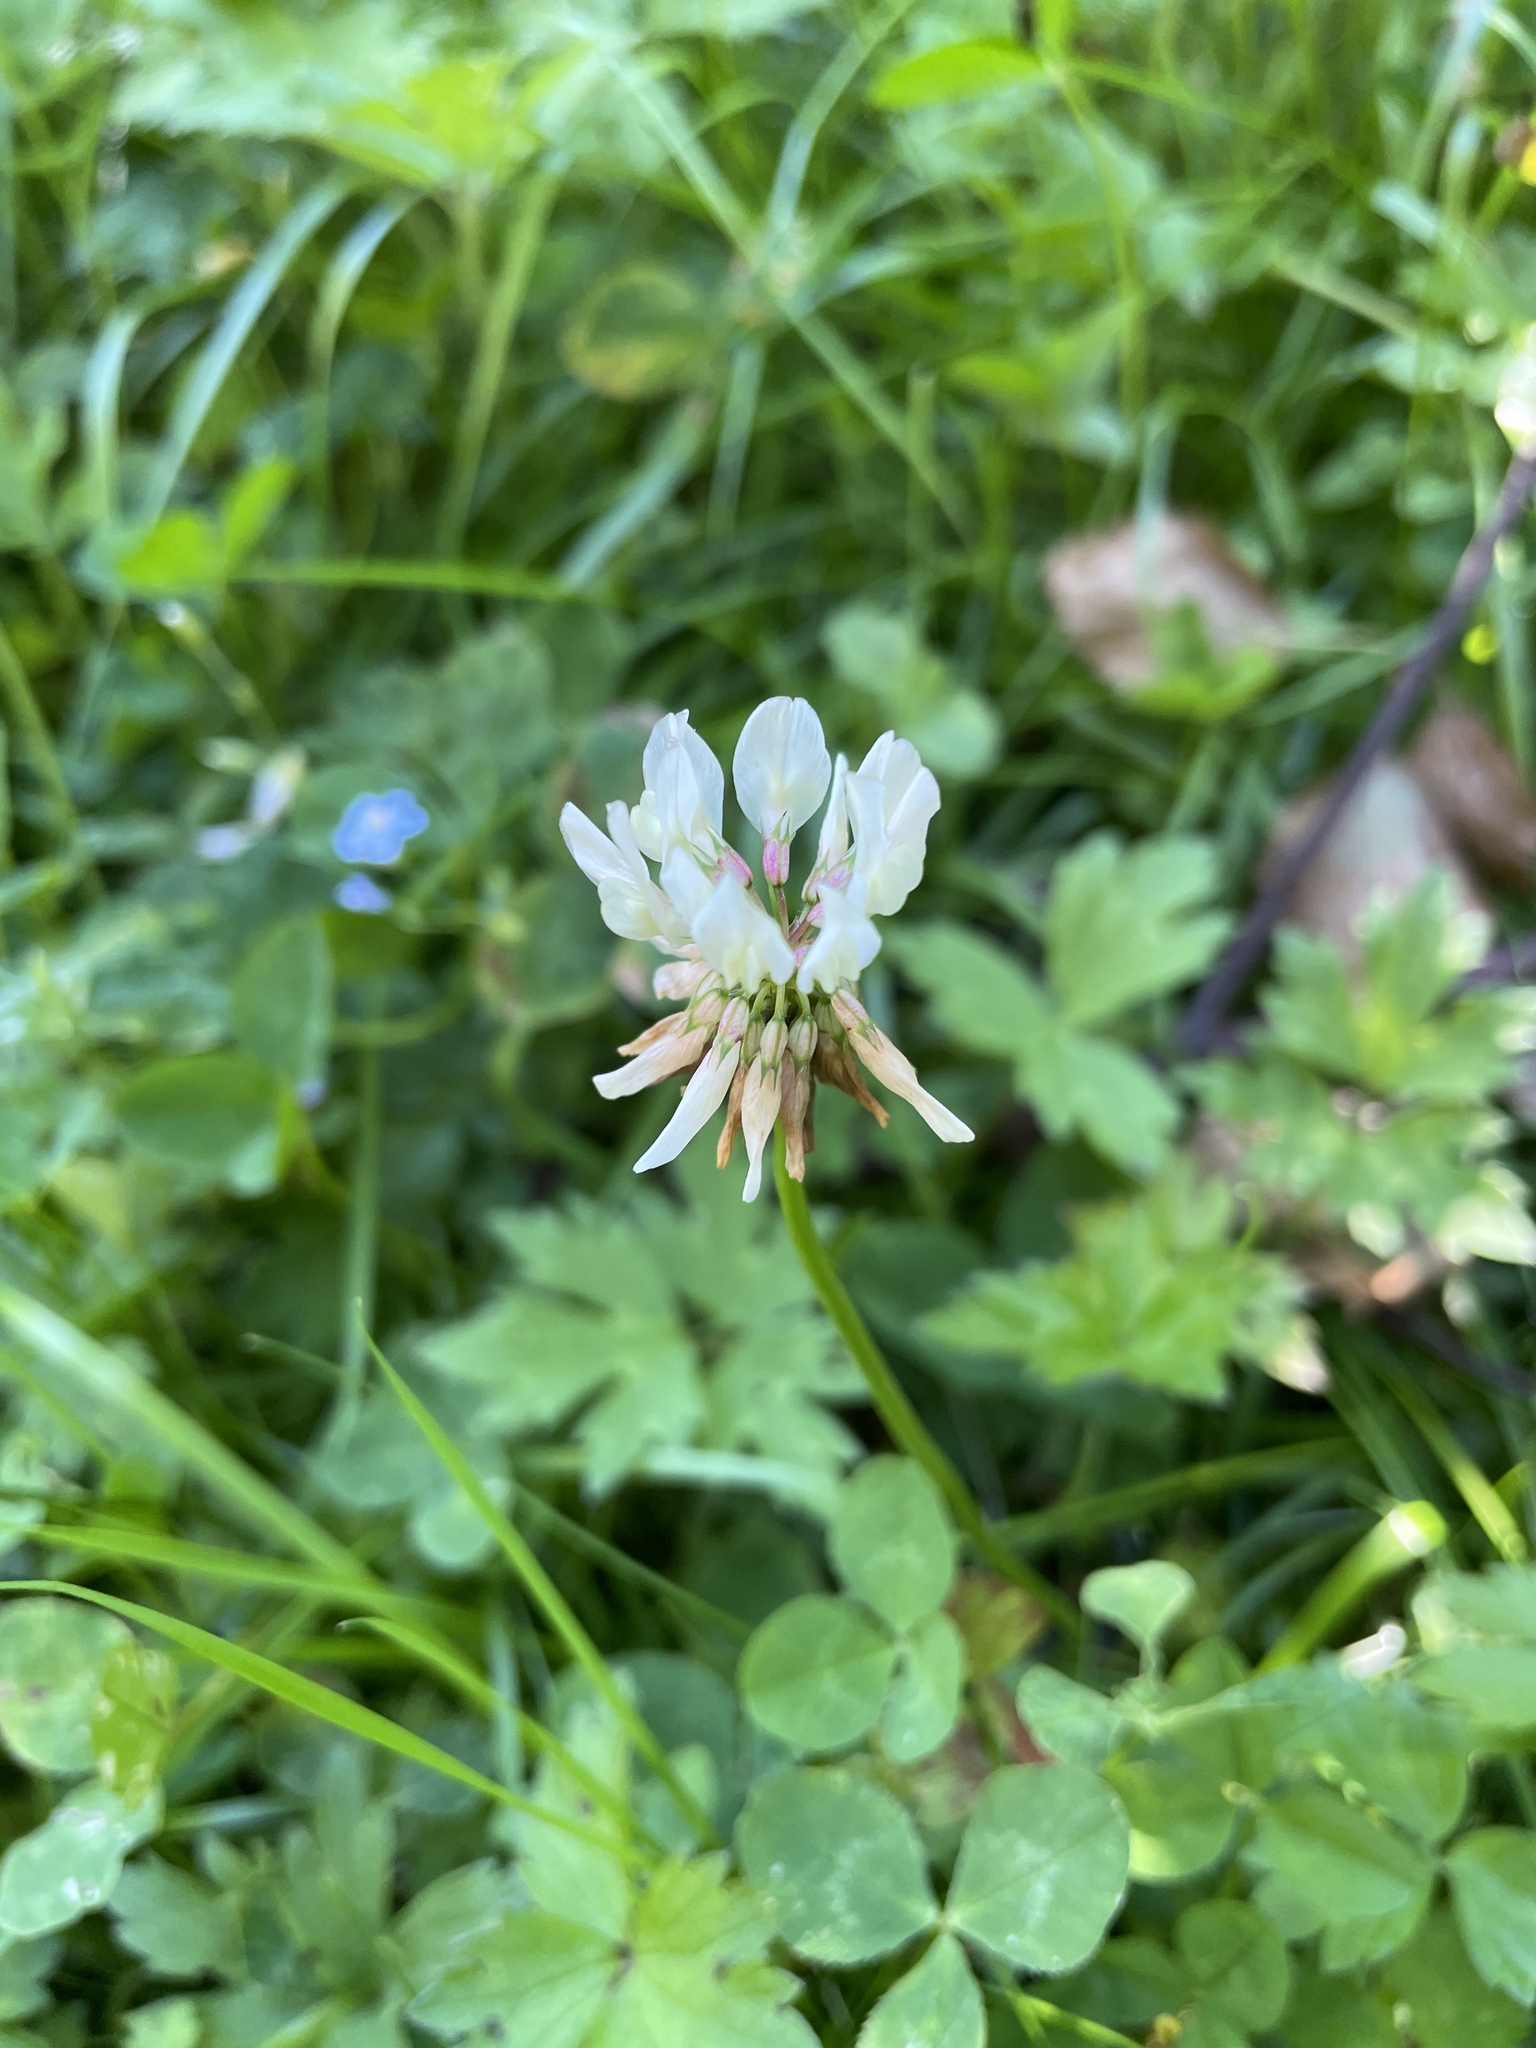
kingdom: Plantae
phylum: Tracheophyta
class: Magnoliopsida
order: Fabales
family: Fabaceae
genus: Trifolium
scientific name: Trifolium repens
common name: White clover
